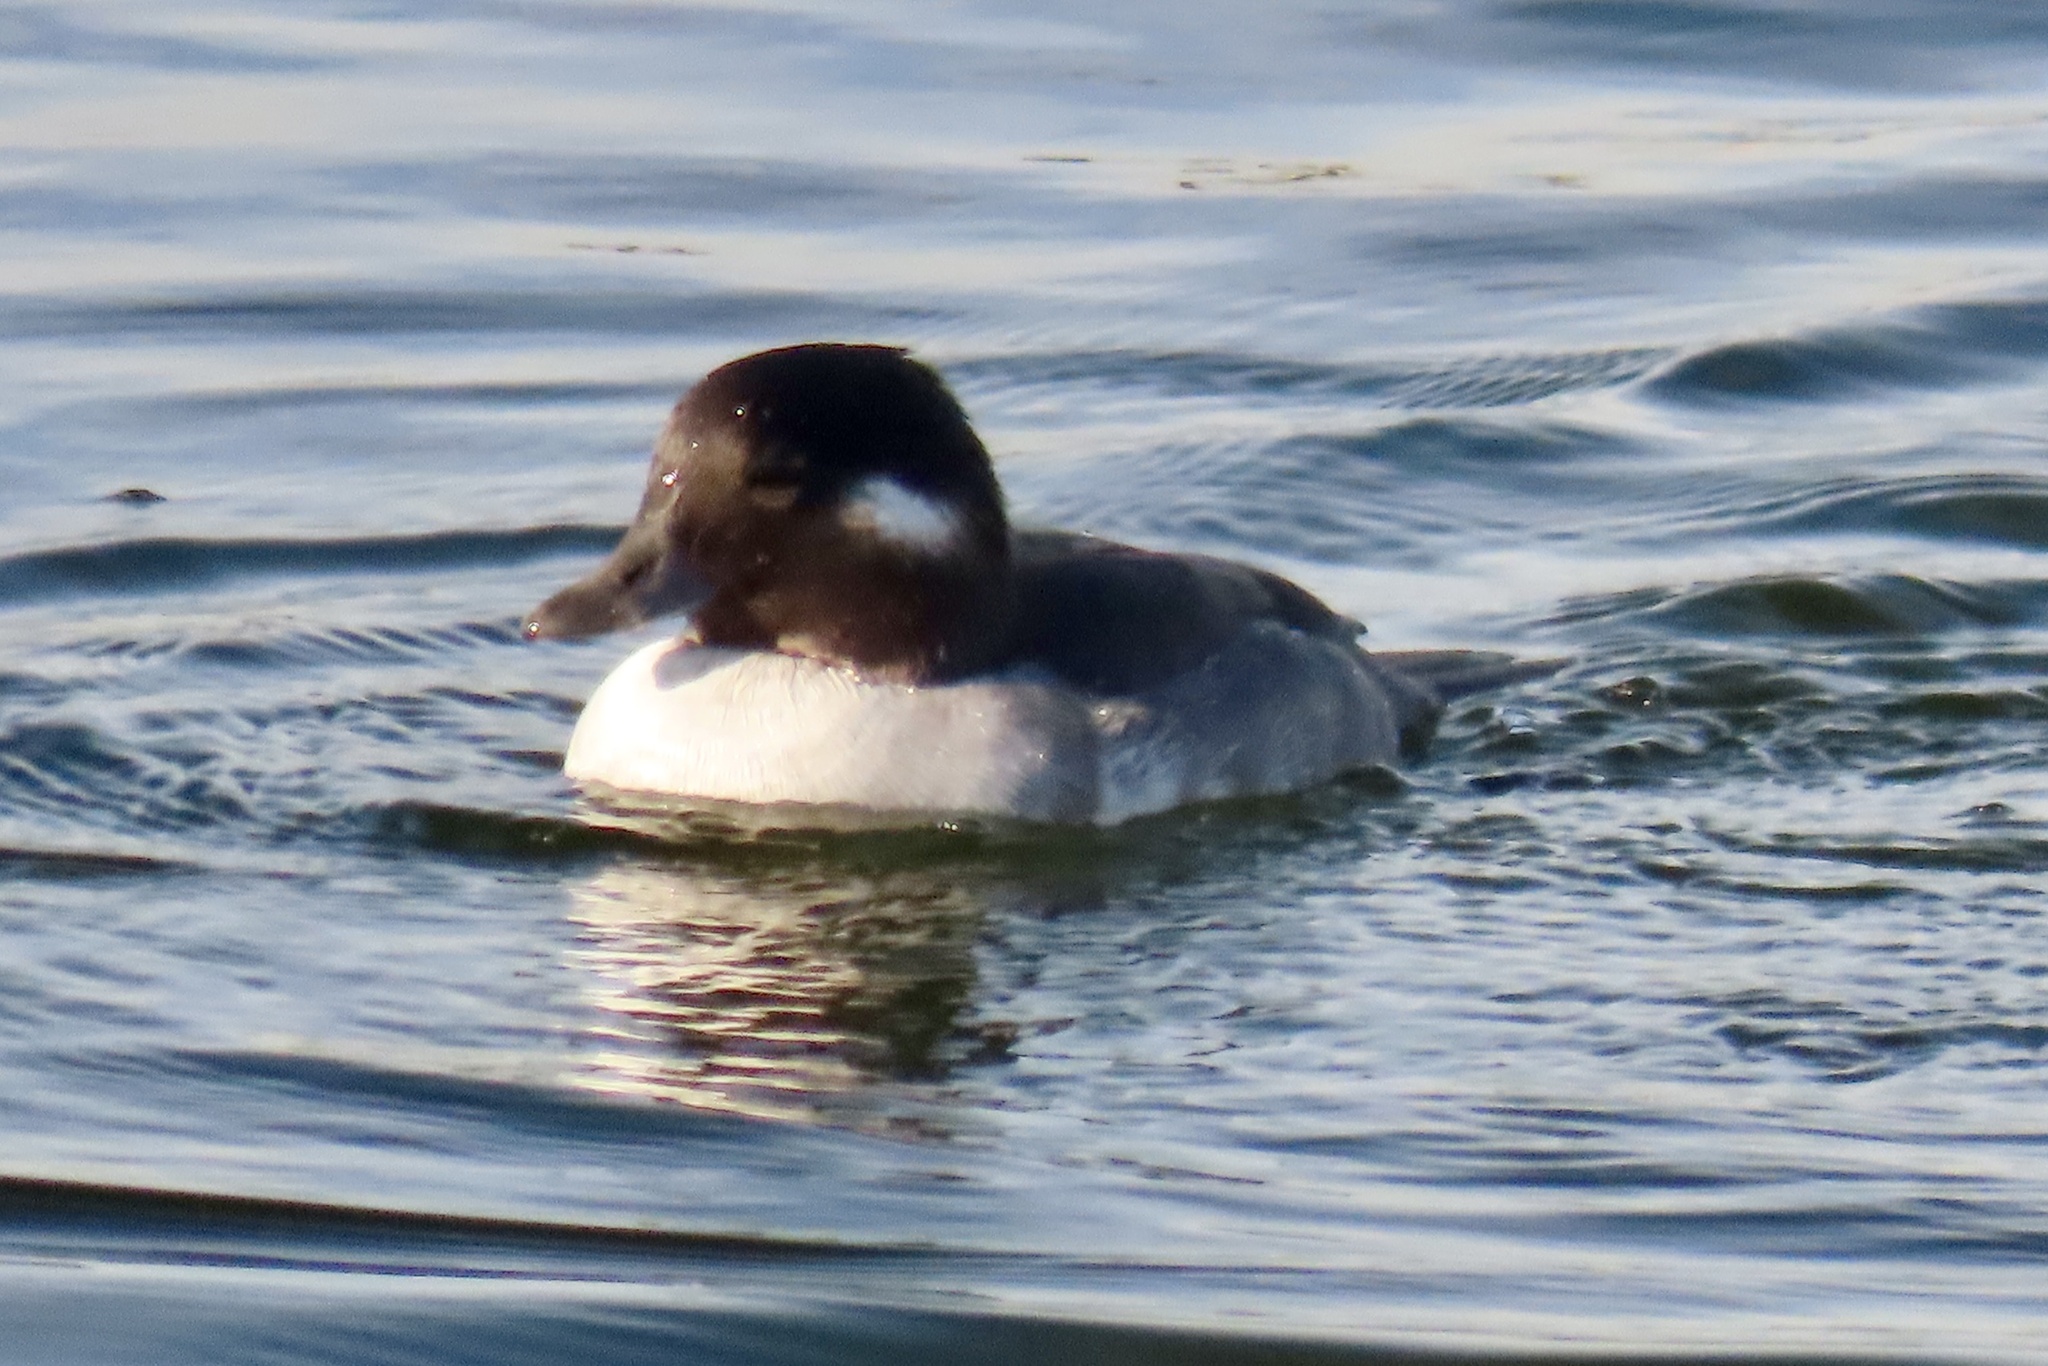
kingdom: Animalia
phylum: Chordata
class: Aves
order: Anseriformes
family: Anatidae
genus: Bucephala
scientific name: Bucephala albeola
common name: Bufflehead
